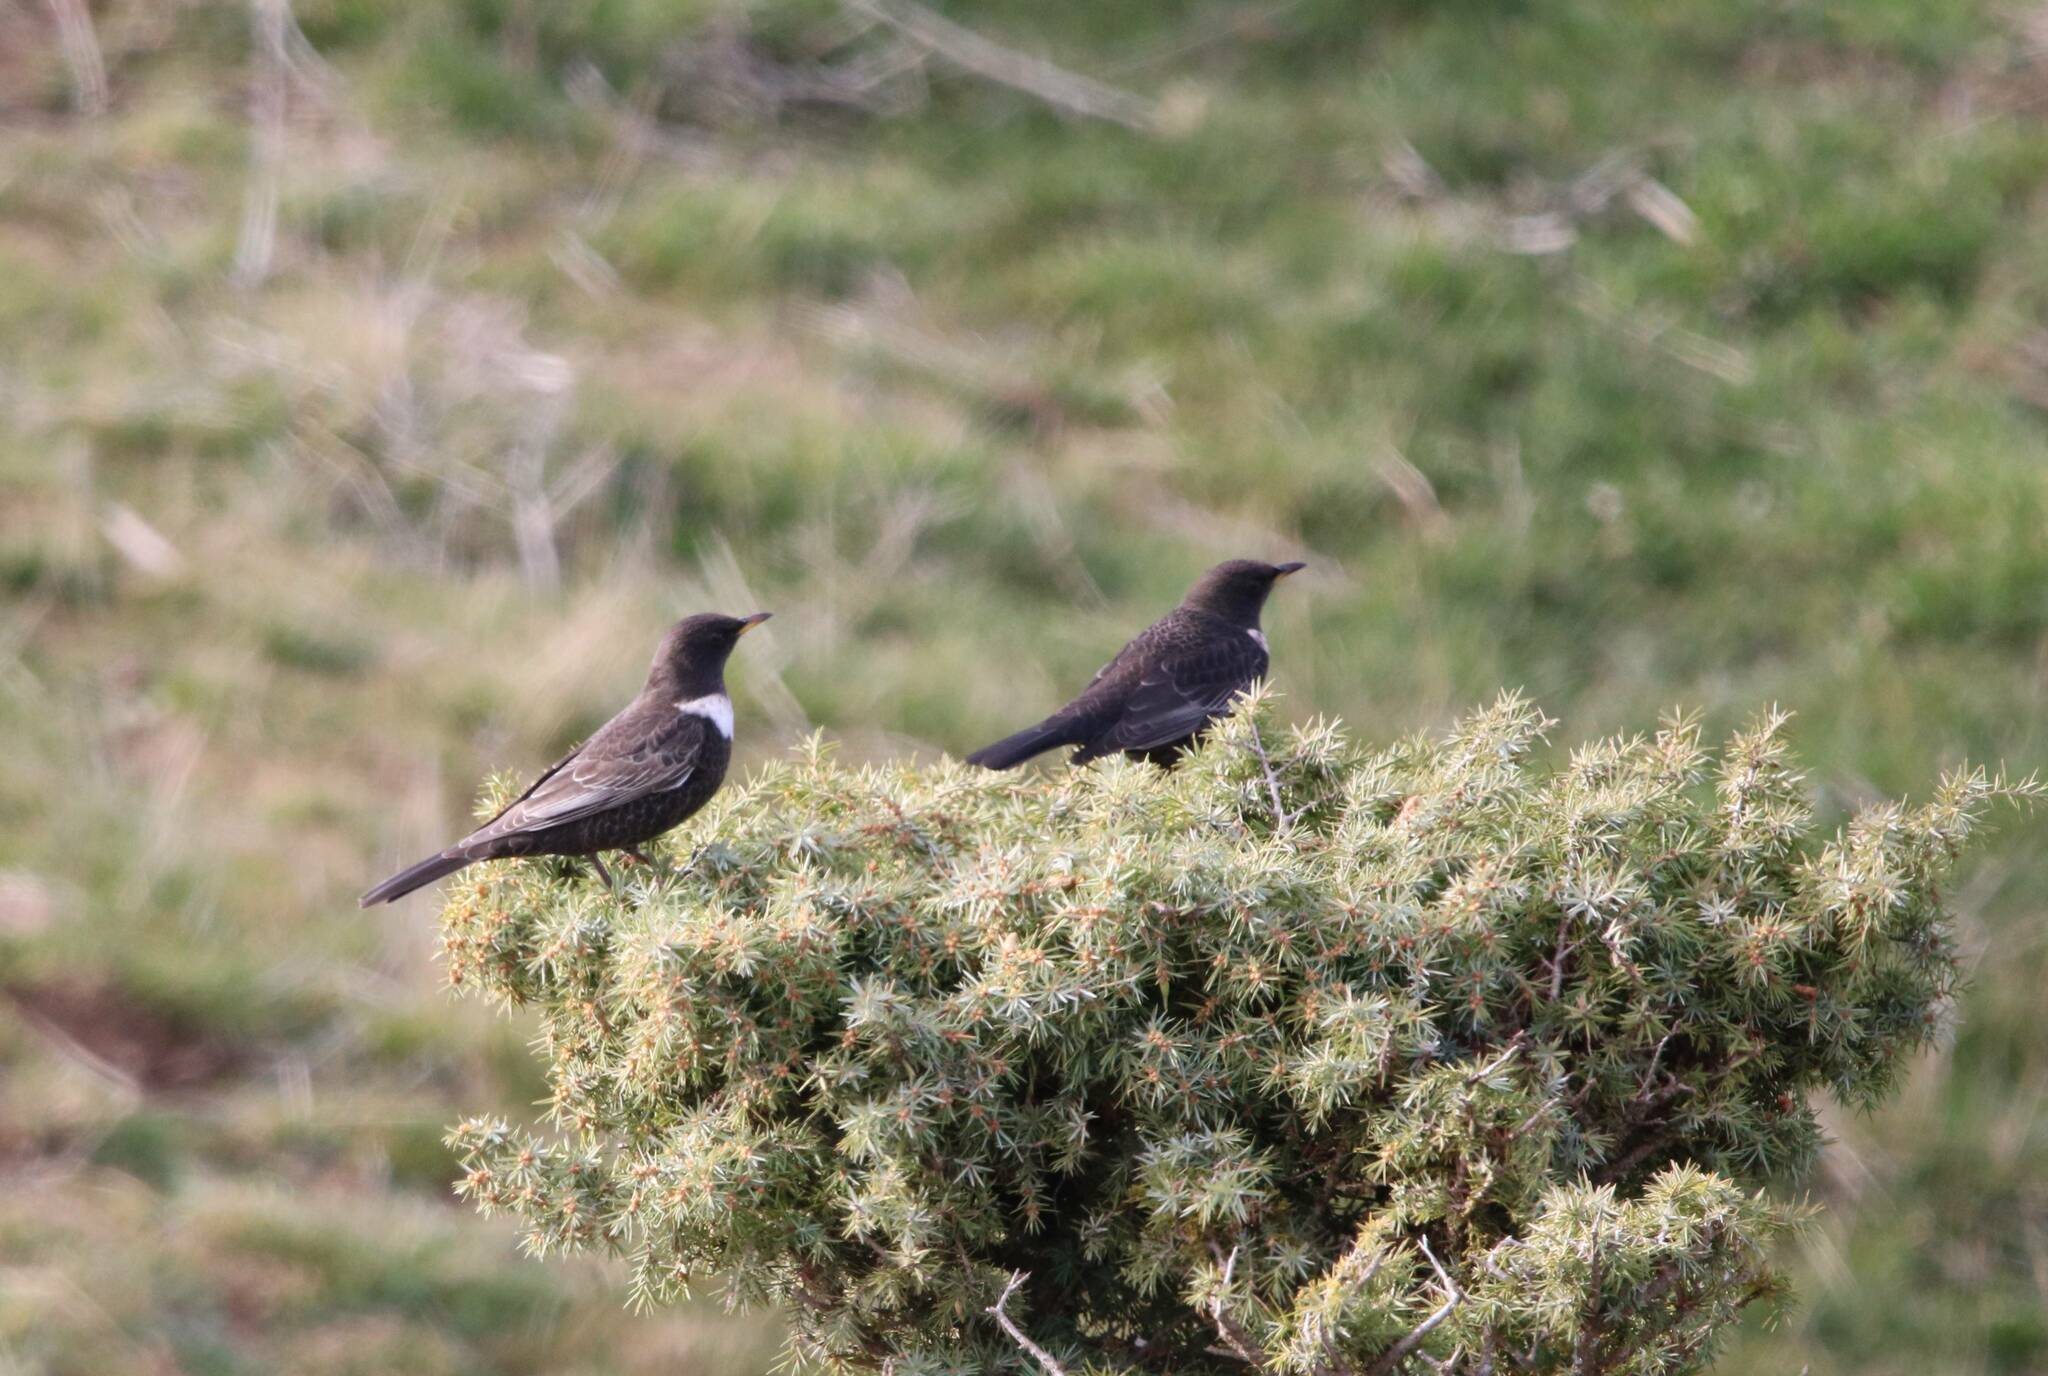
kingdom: Animalia
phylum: Chordata
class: Aves
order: Passeriformes
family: Turdidae
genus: Turdus
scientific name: Turdus torquatus
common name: Ring ouzel
